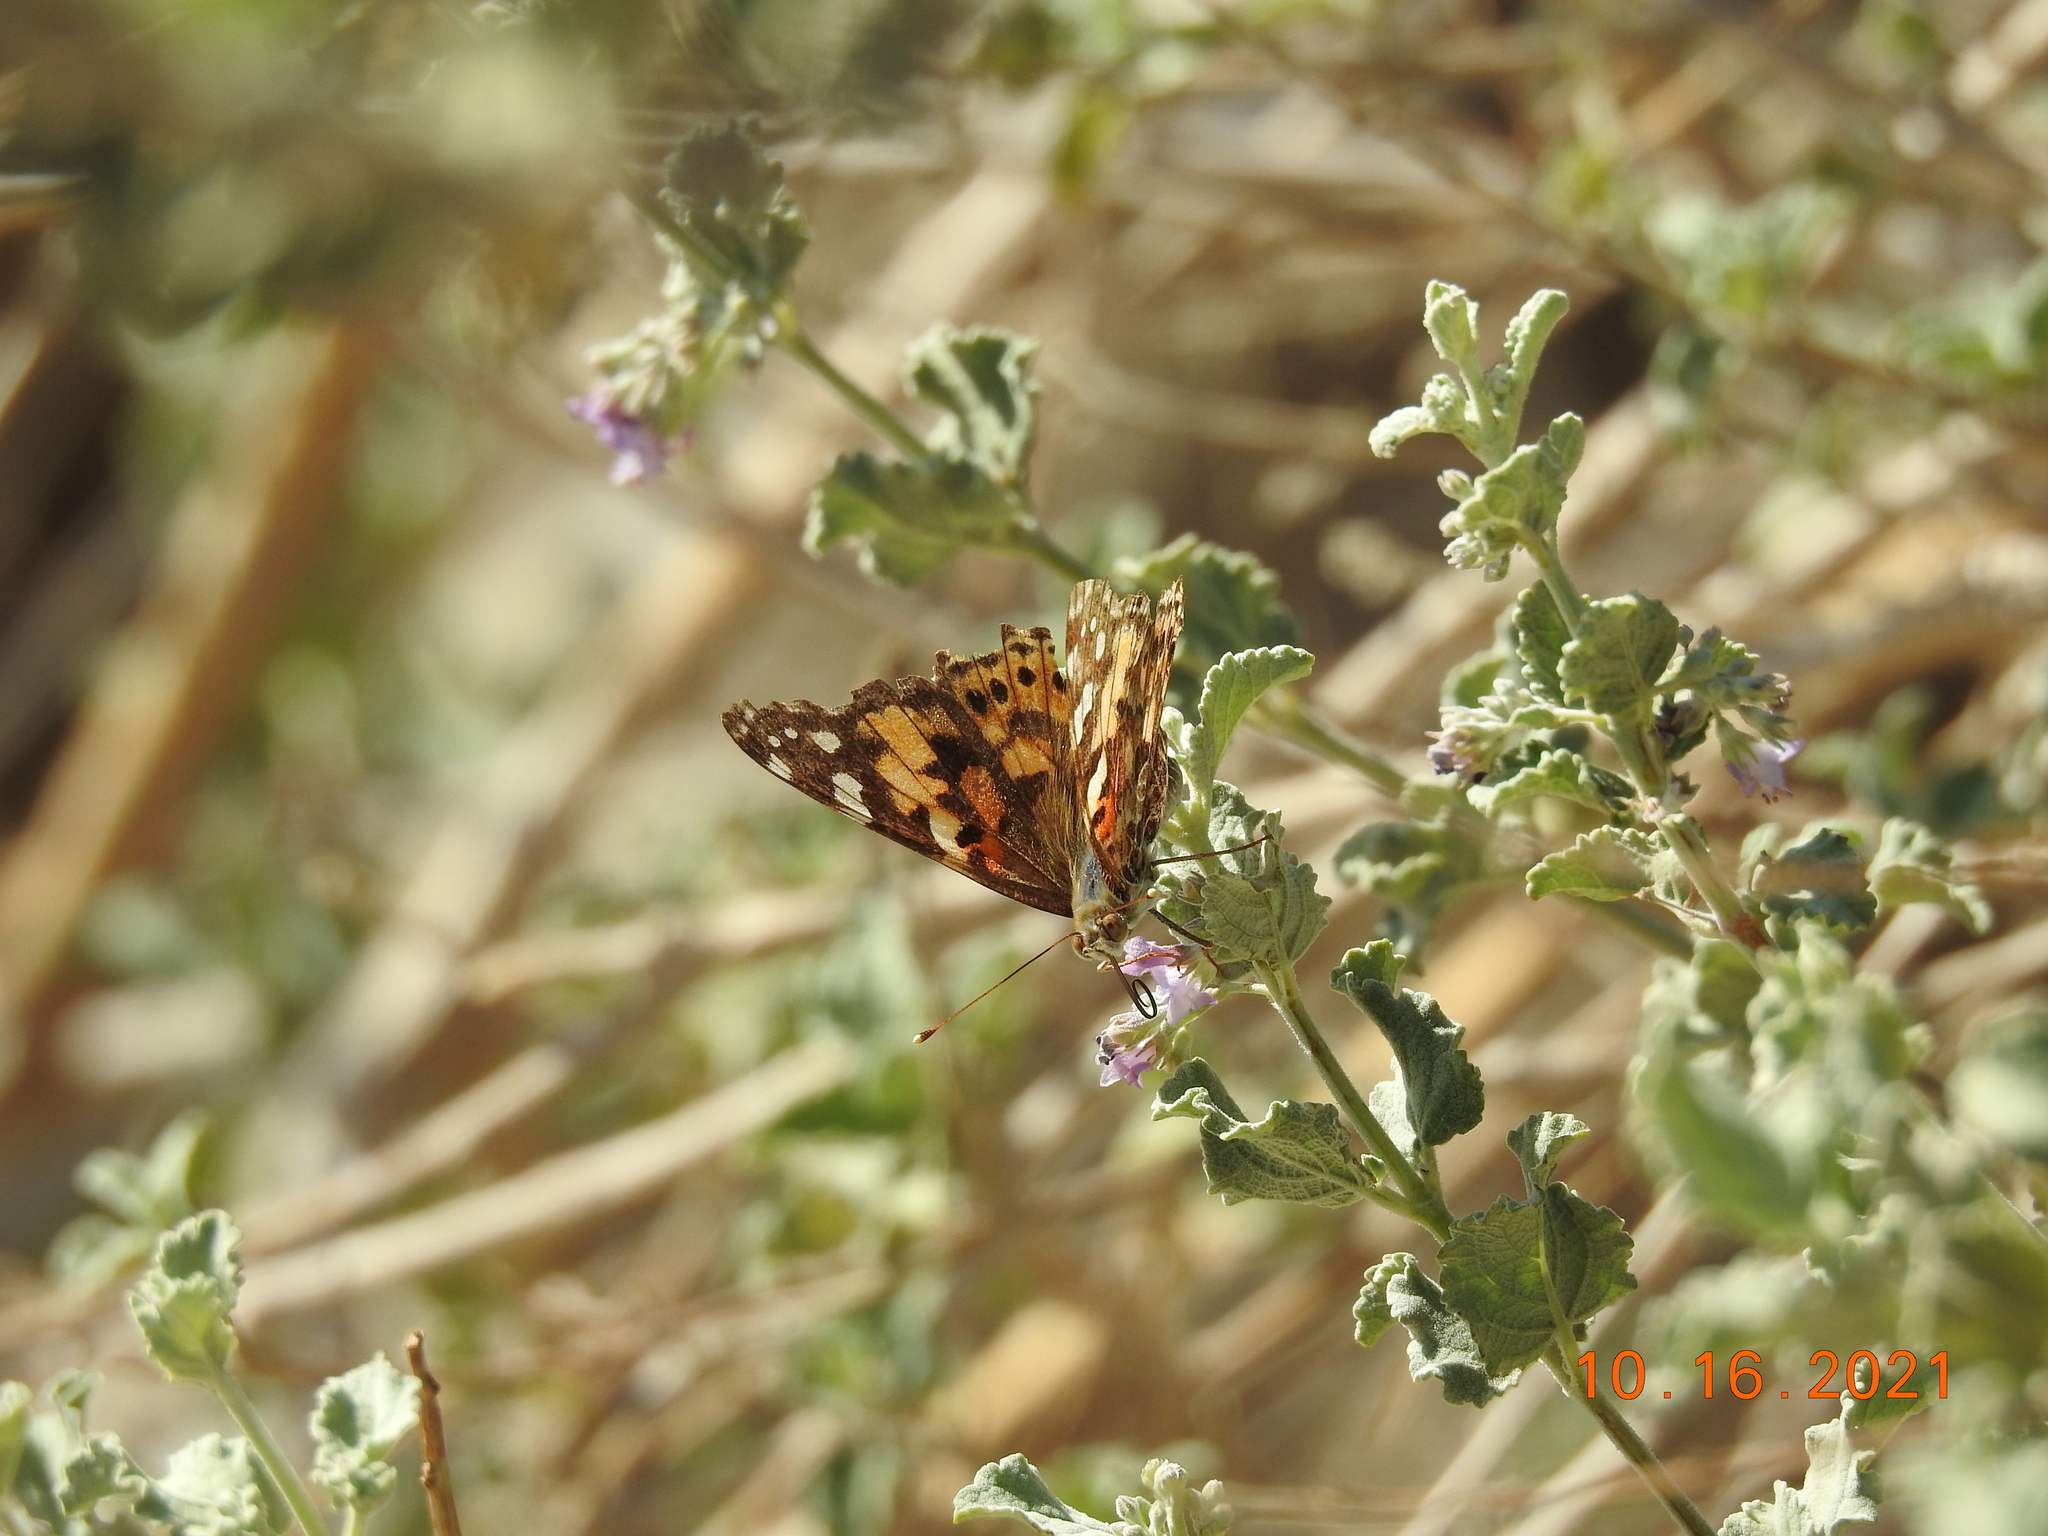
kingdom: Animalia
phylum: Arthropoda
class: Insecta
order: Lepidoptera
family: Nymphalidae
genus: Vanessa
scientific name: Vanessa cardui
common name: Painted lady
